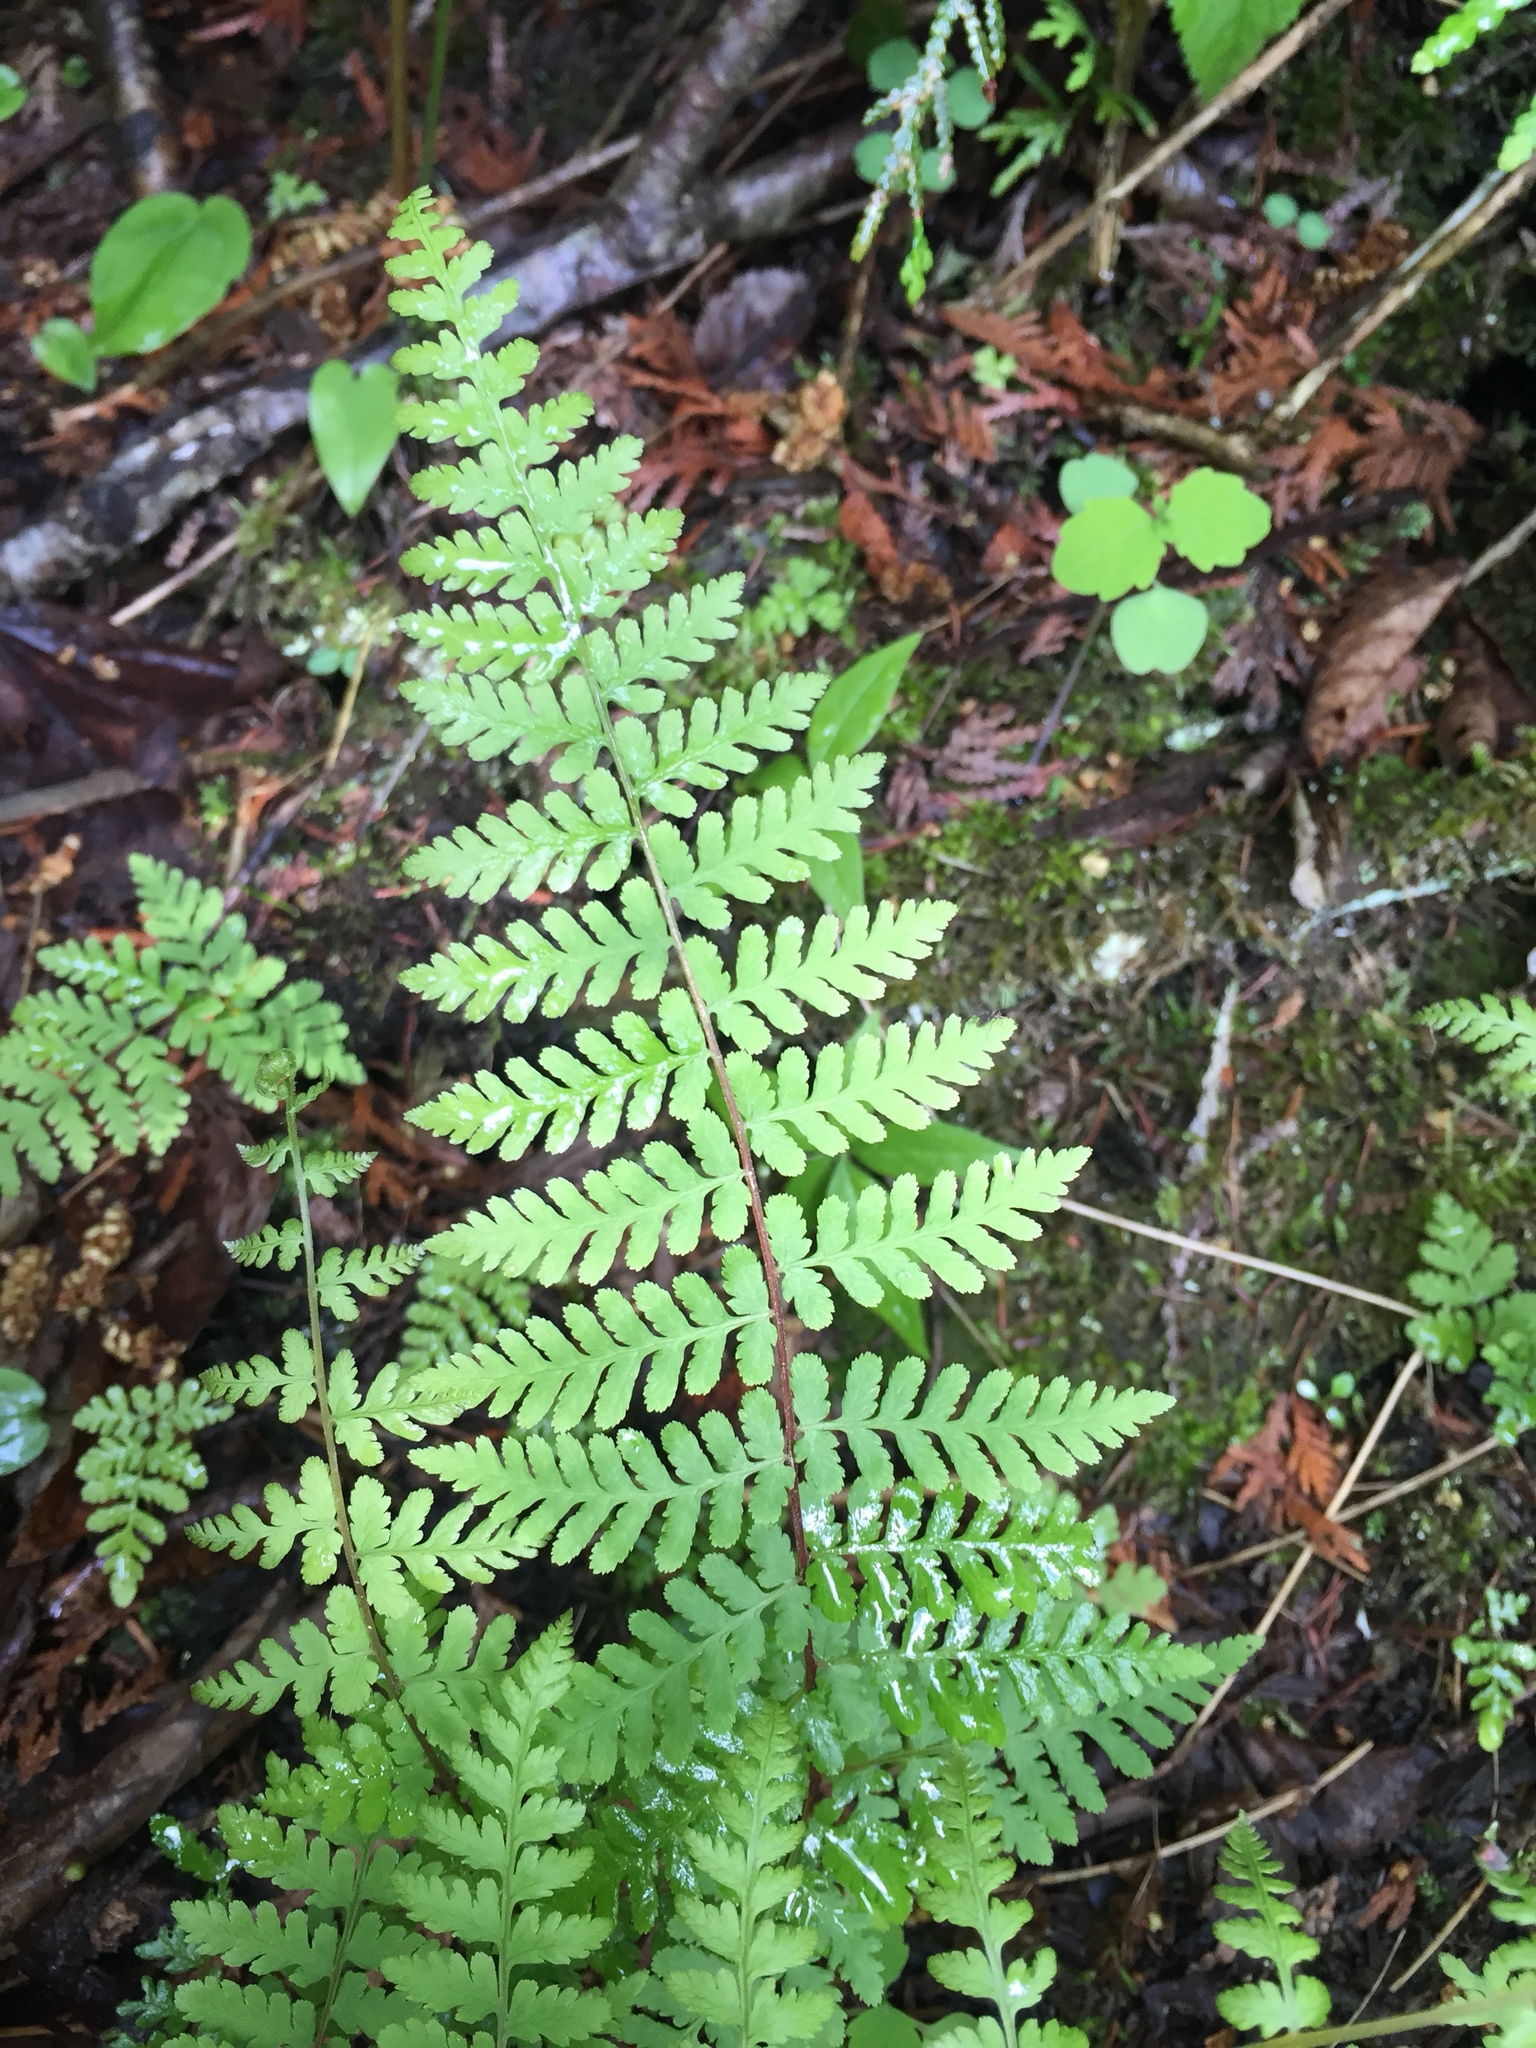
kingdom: Plantae
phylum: Tracheophyta
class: Polypodiopsida
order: Polypodiales
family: Cystopteridaceae
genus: Cystopteris
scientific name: Cystopteris bulbifera
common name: Bulblet bladder fern
